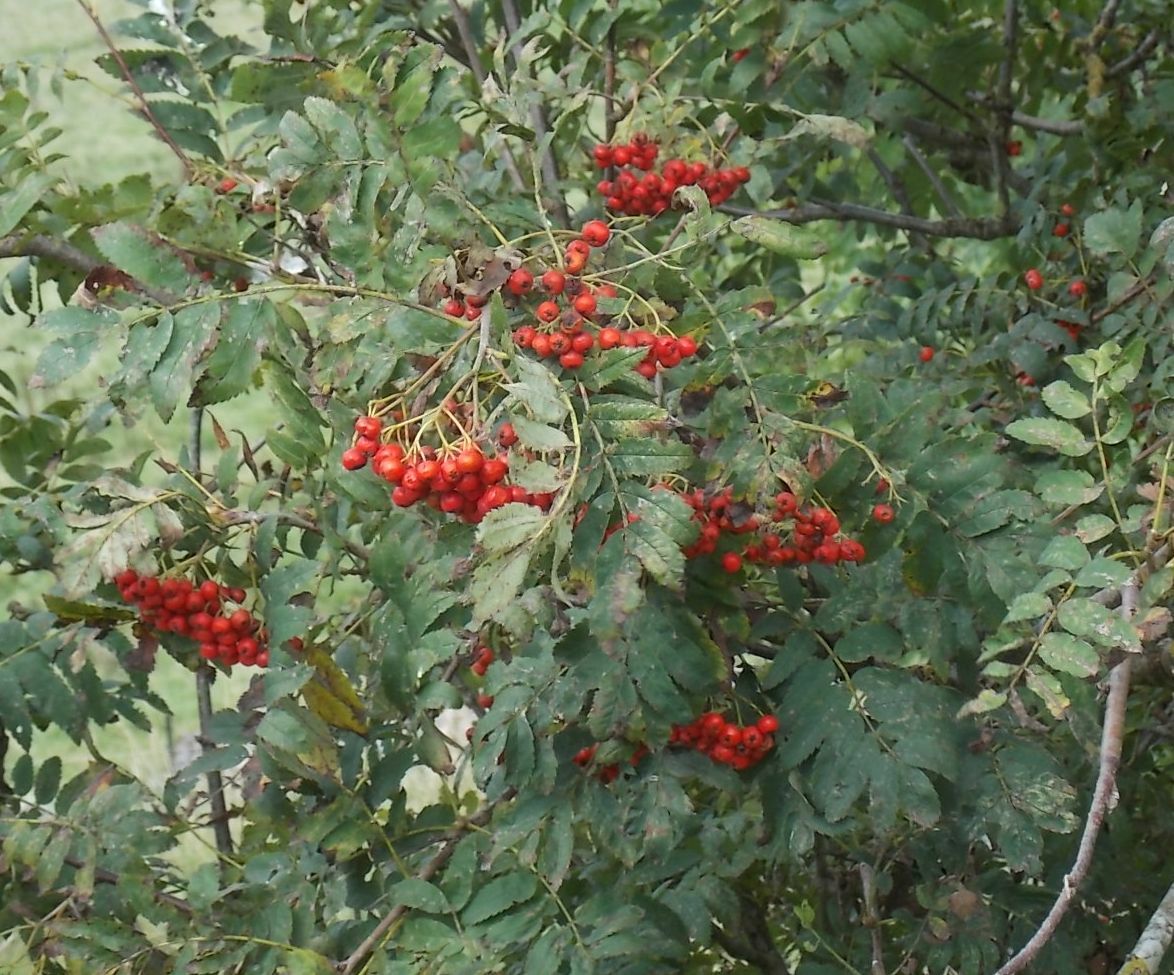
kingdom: Plantae
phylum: Tracheophyta
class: Magnoliopsida
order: Rosales
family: Rosaceae
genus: Sorbus
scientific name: Sorbus aucuparia
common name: Rowan
